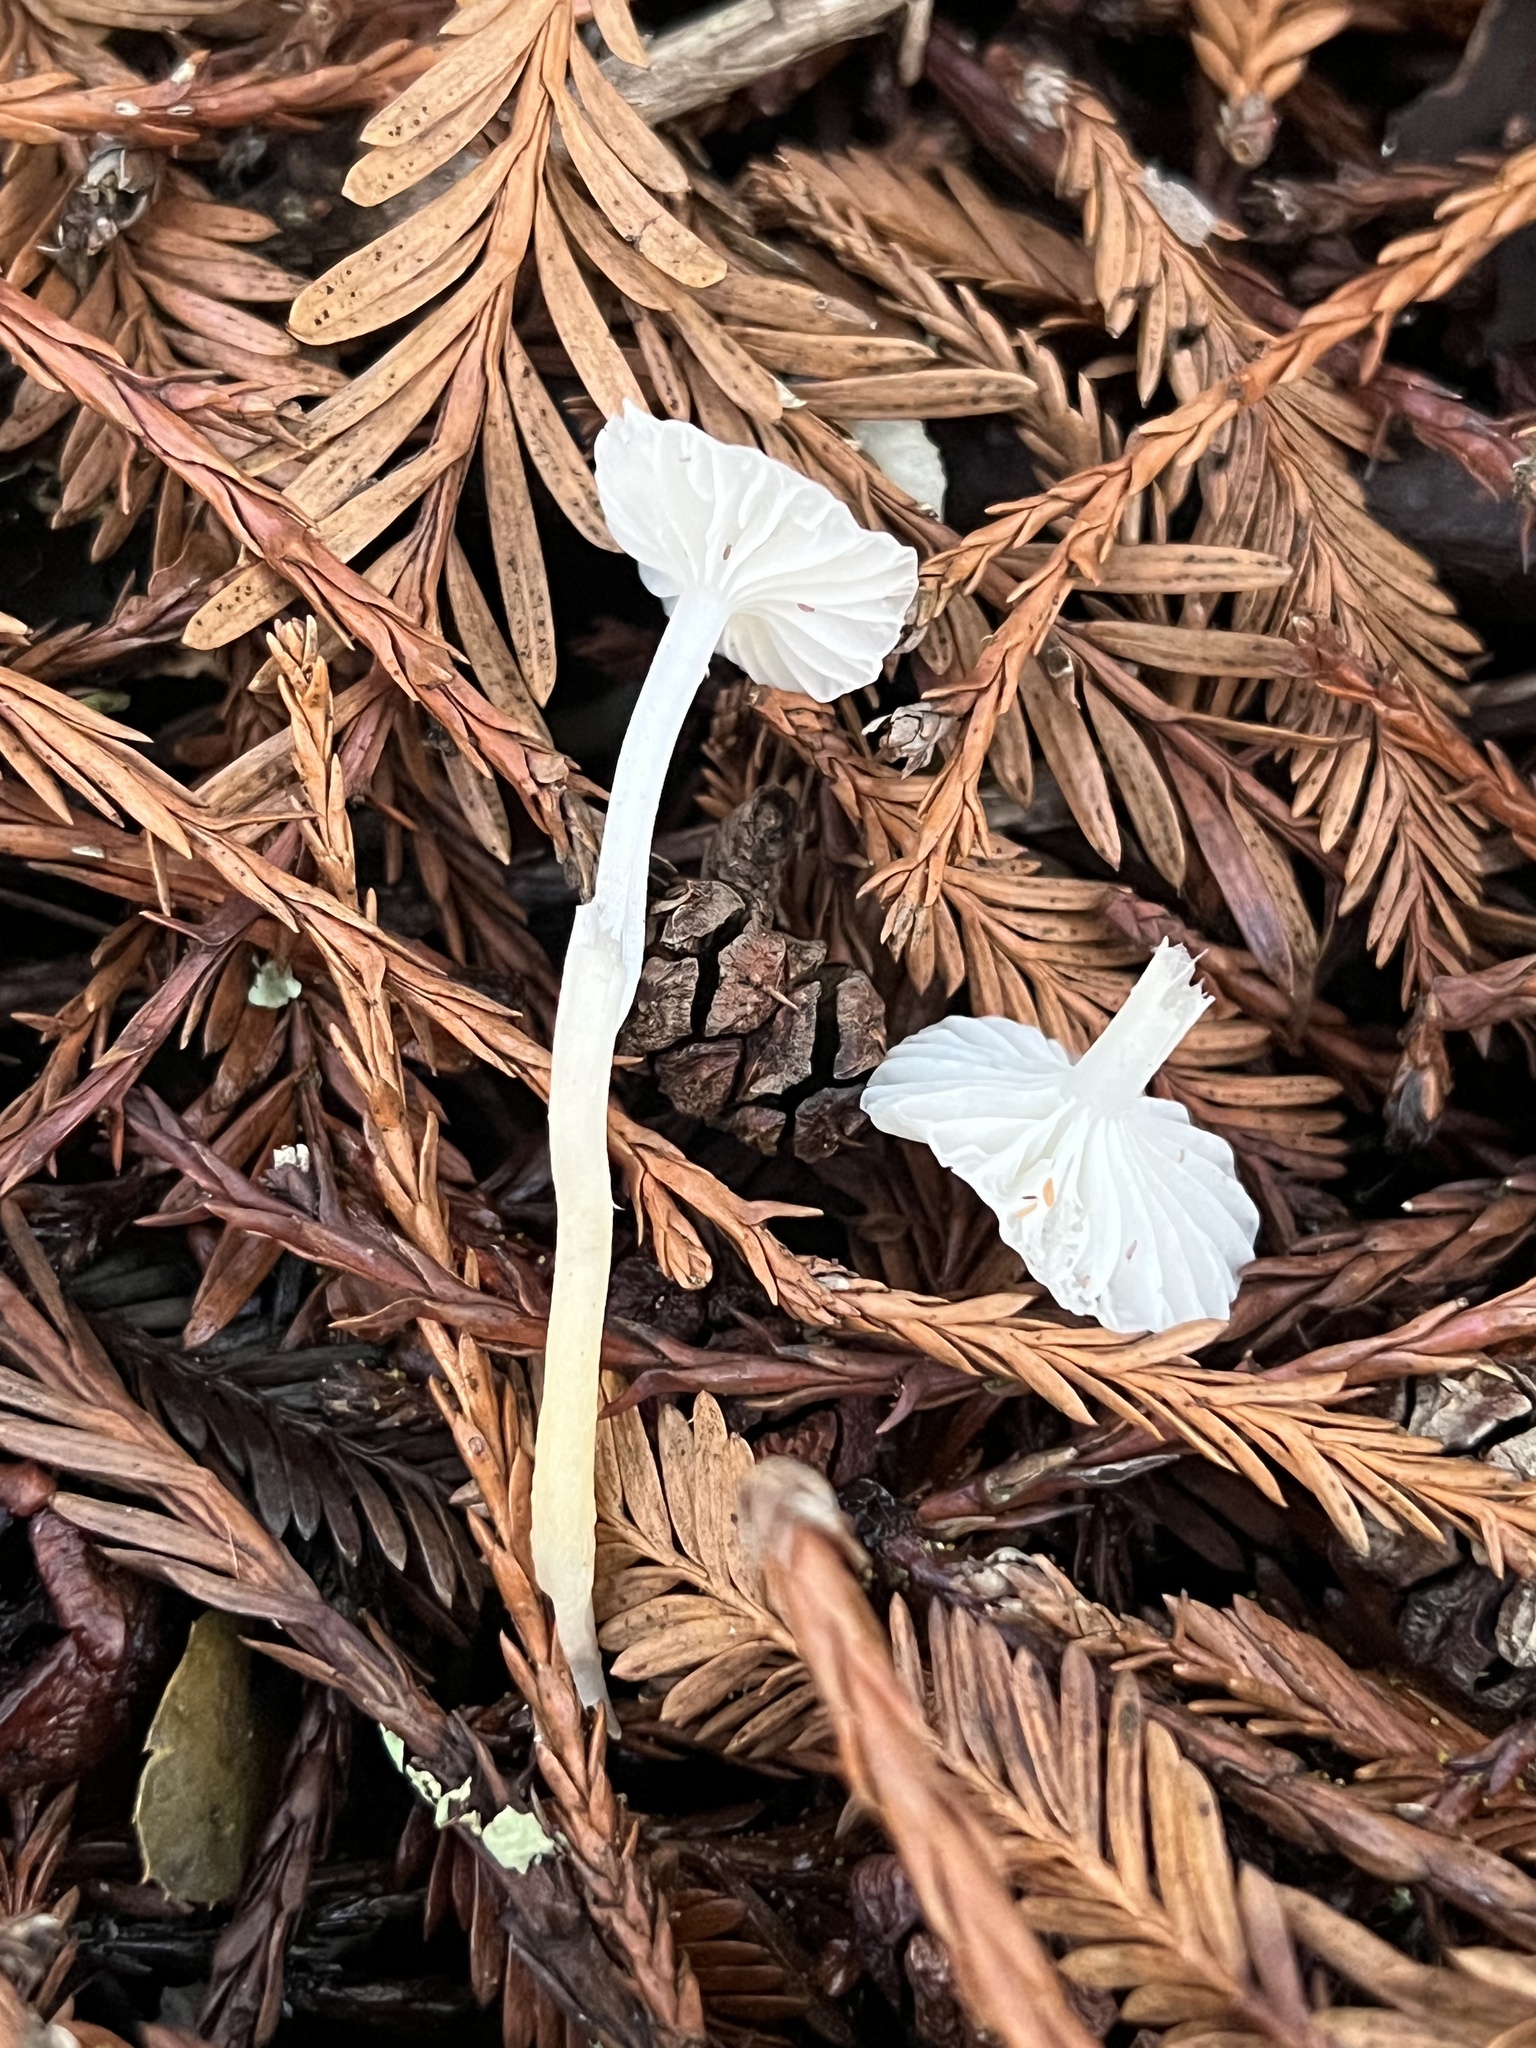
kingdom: Fungi
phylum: Basidiomycota
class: Agaricomycetes
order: Agaricales
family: Marasmiaceae
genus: Marasmius
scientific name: Marasmius calhouniae
